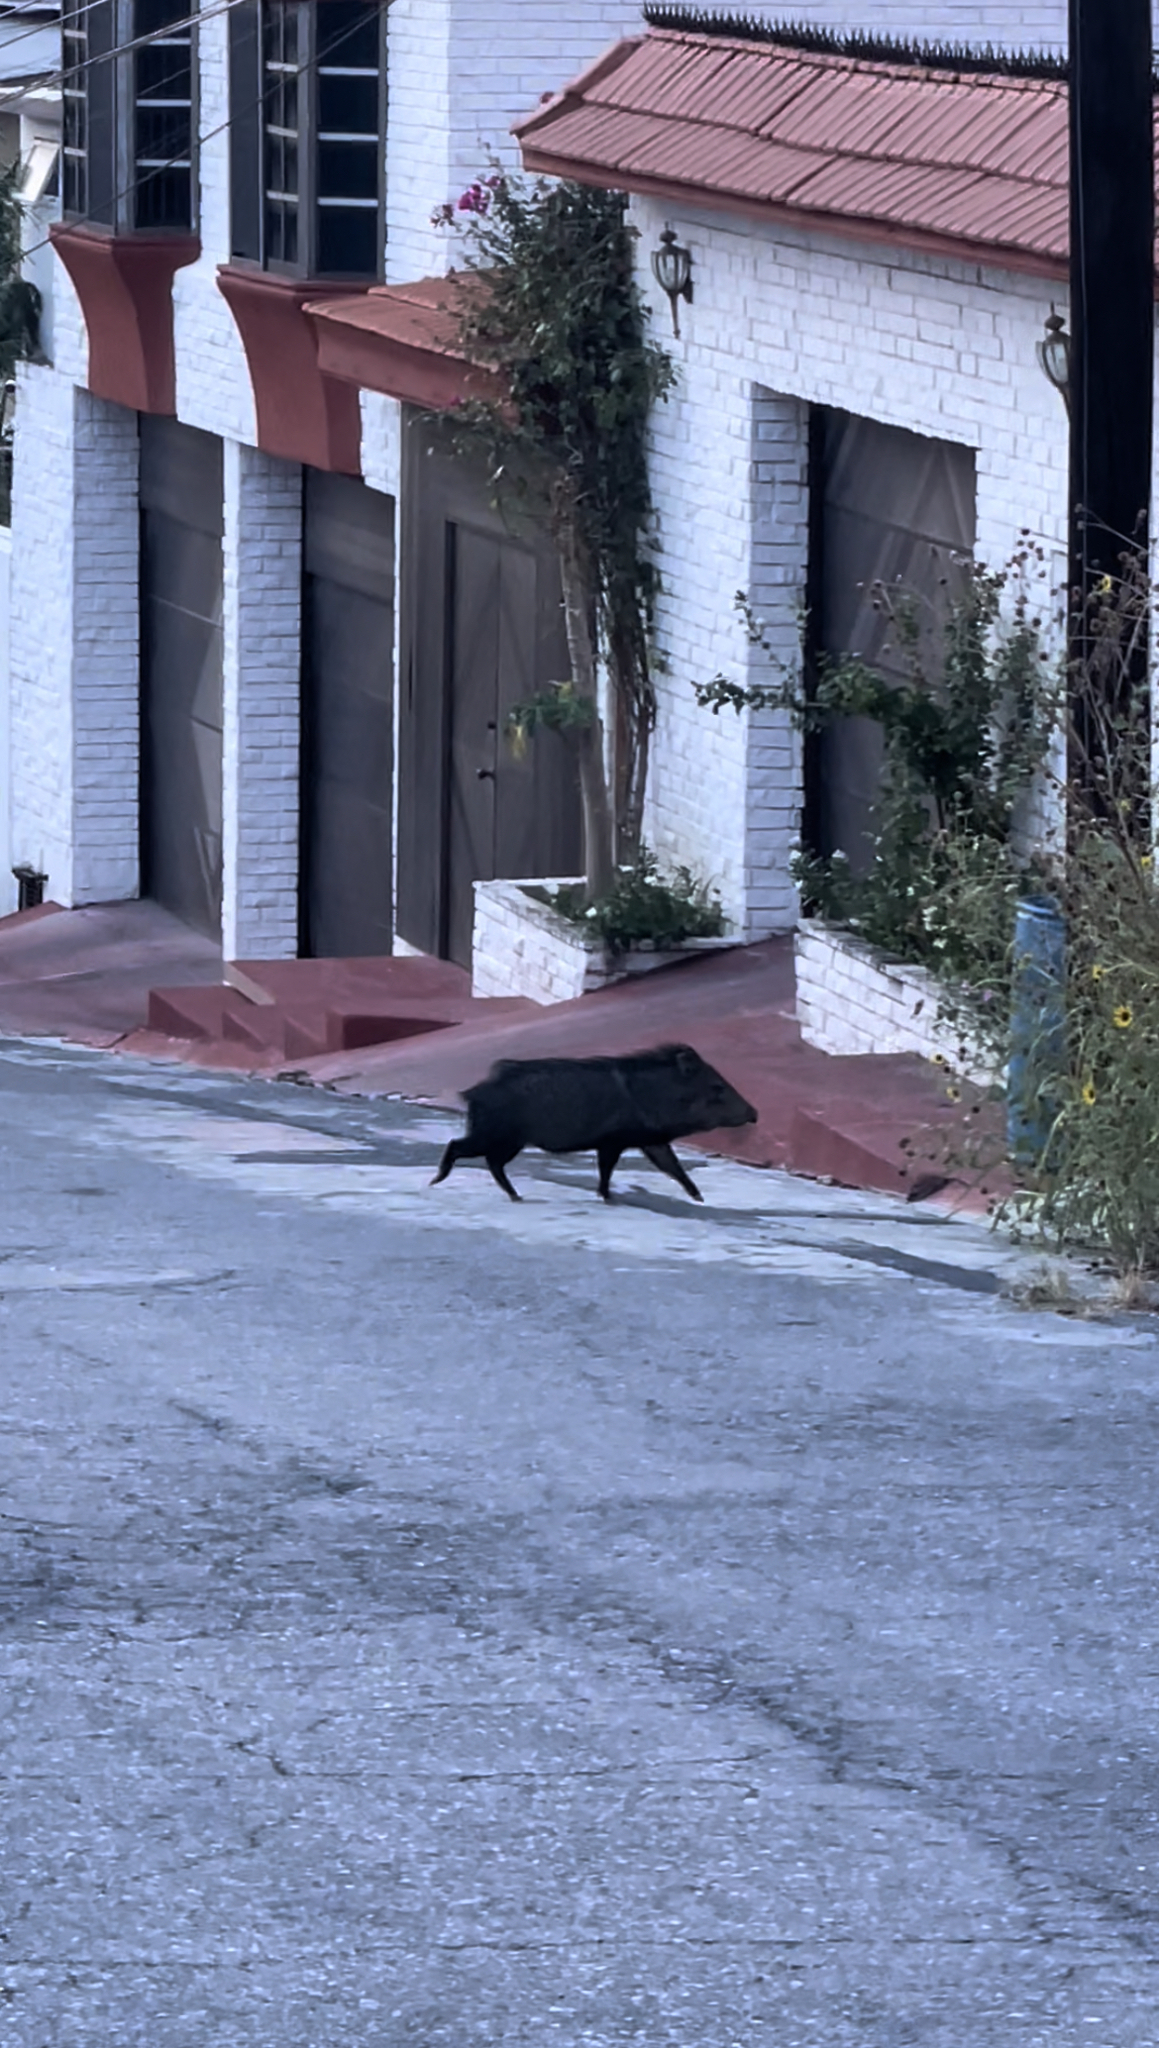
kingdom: Animalia
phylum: Chordata
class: Mammalia
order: Artiodactyla
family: Tayassuidae
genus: Pecari
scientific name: Pecari tajacu
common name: Collared peccary
